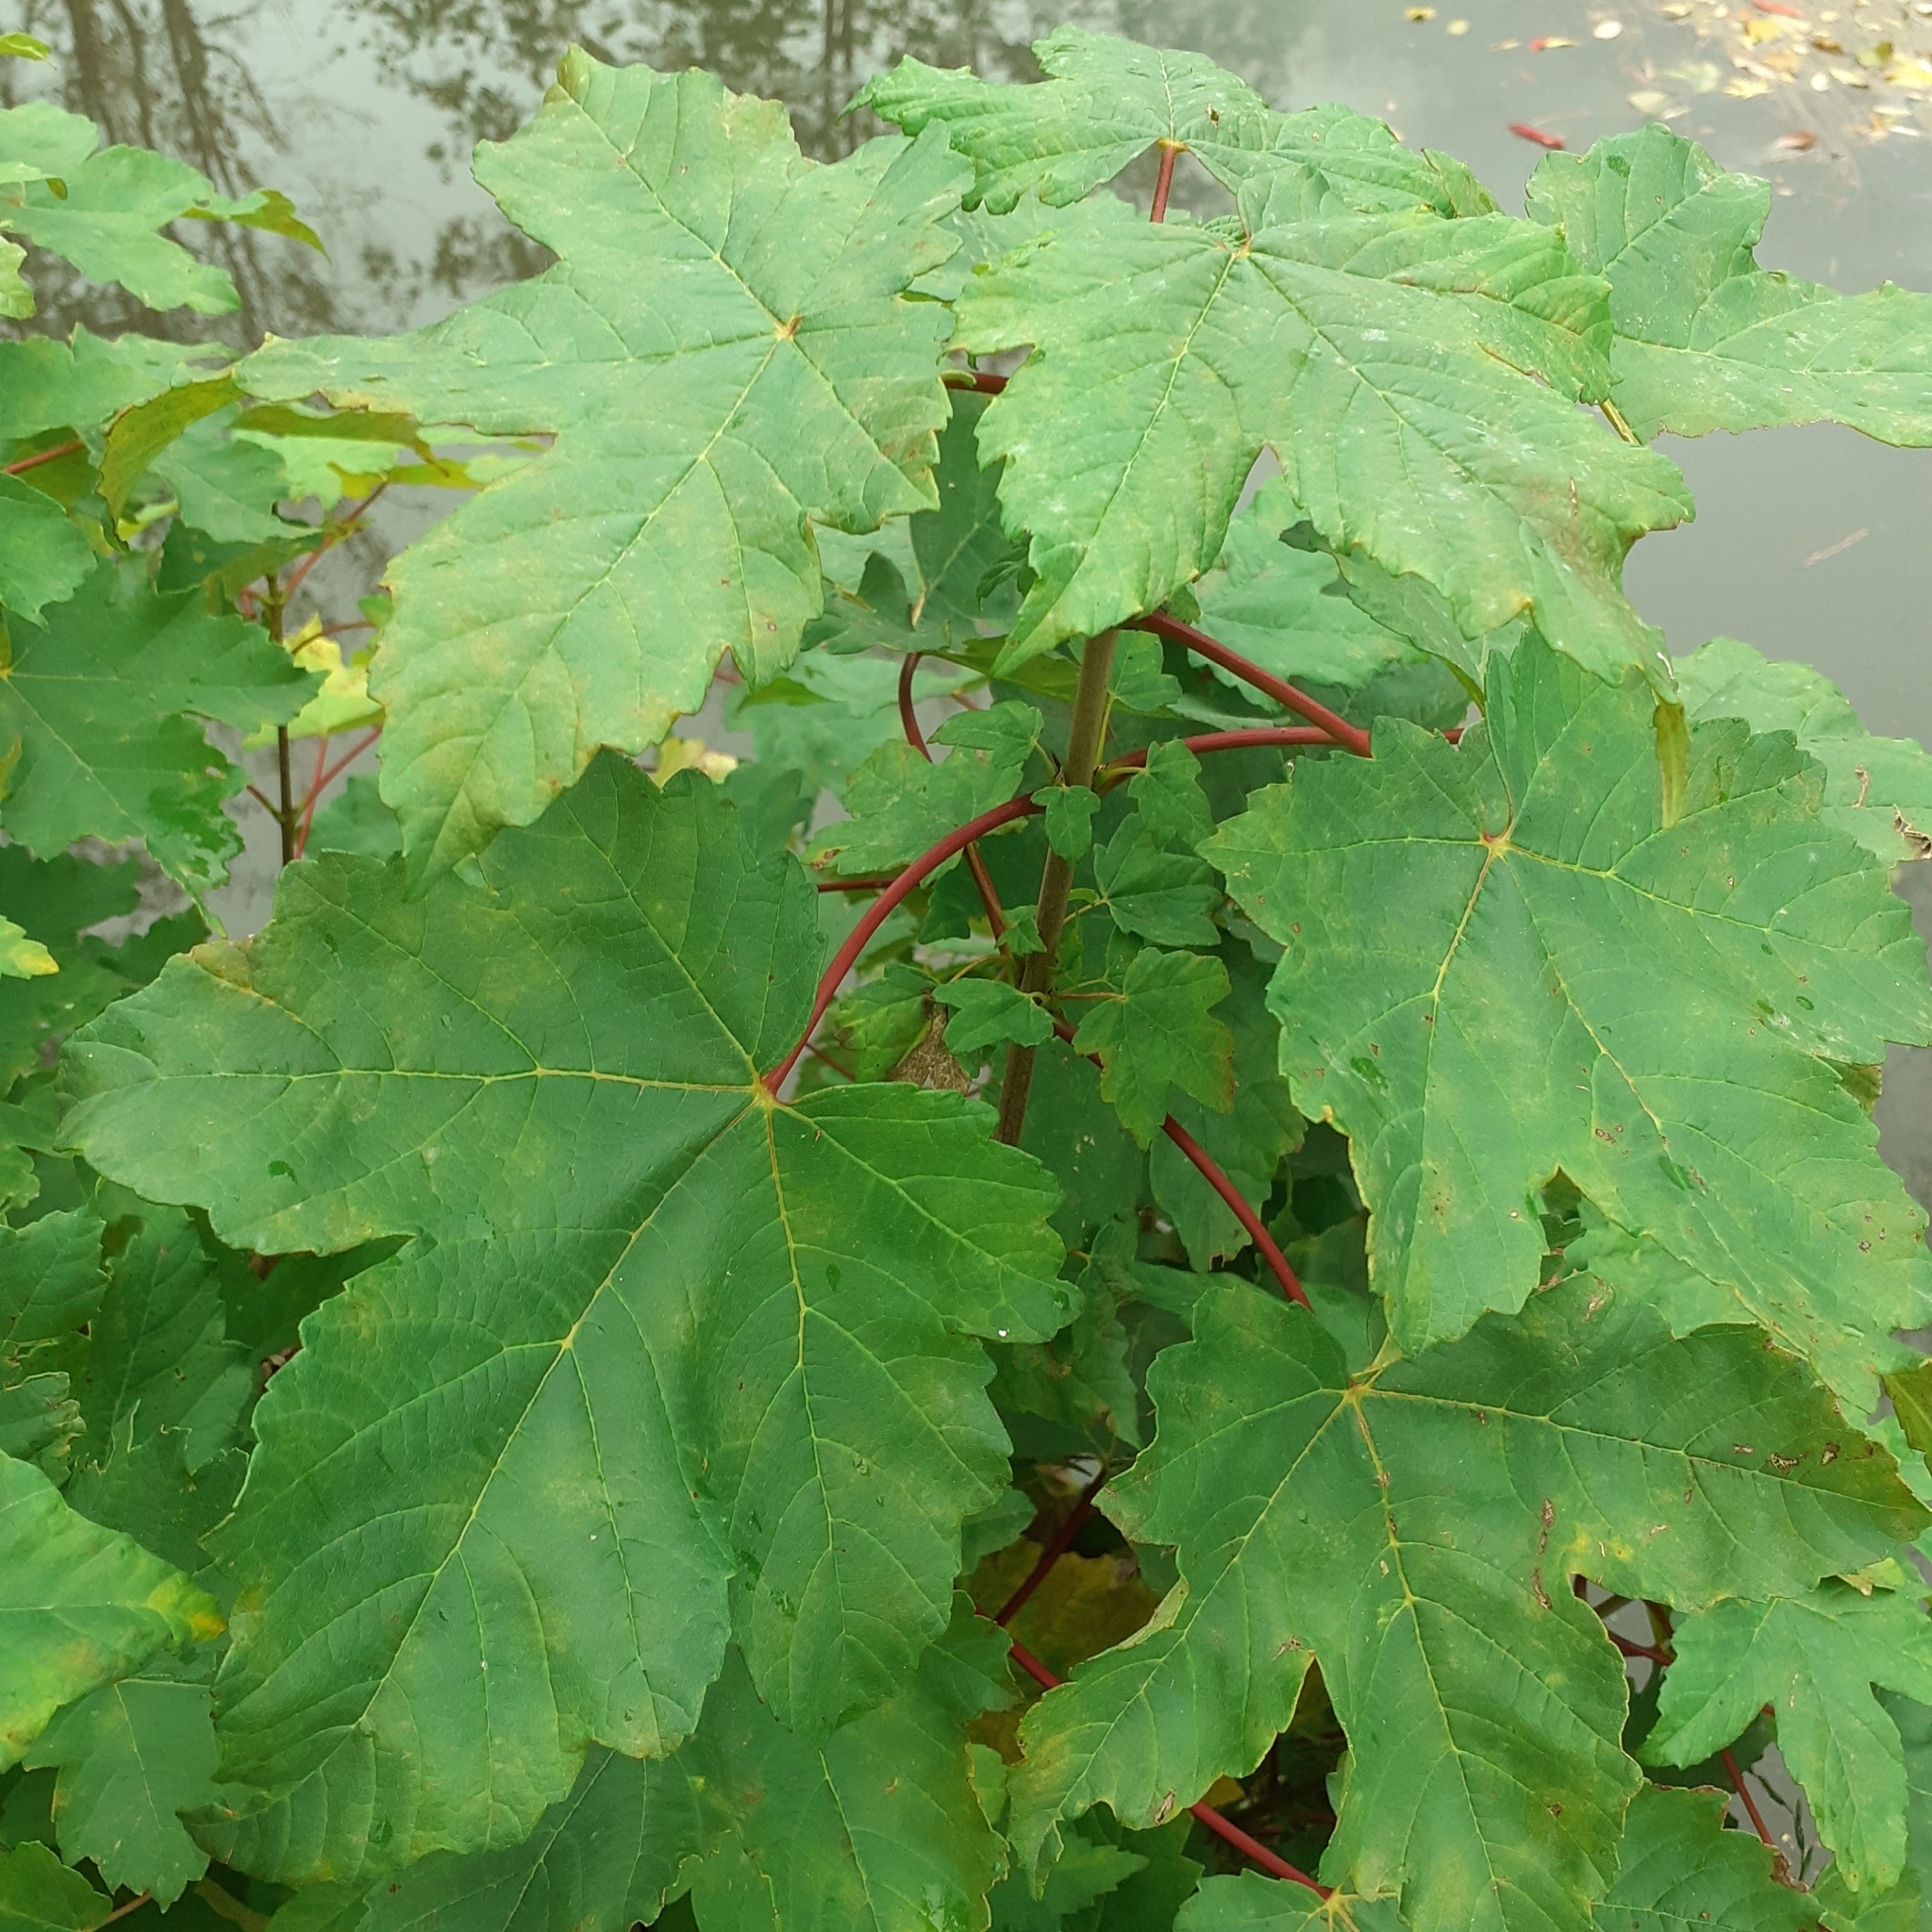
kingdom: Plantae
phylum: Tracheophyta
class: Magnoliopsida
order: Sapindales
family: Sapindaceae
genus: Acer
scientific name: Acer pseudoplatanus
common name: Sycamore
